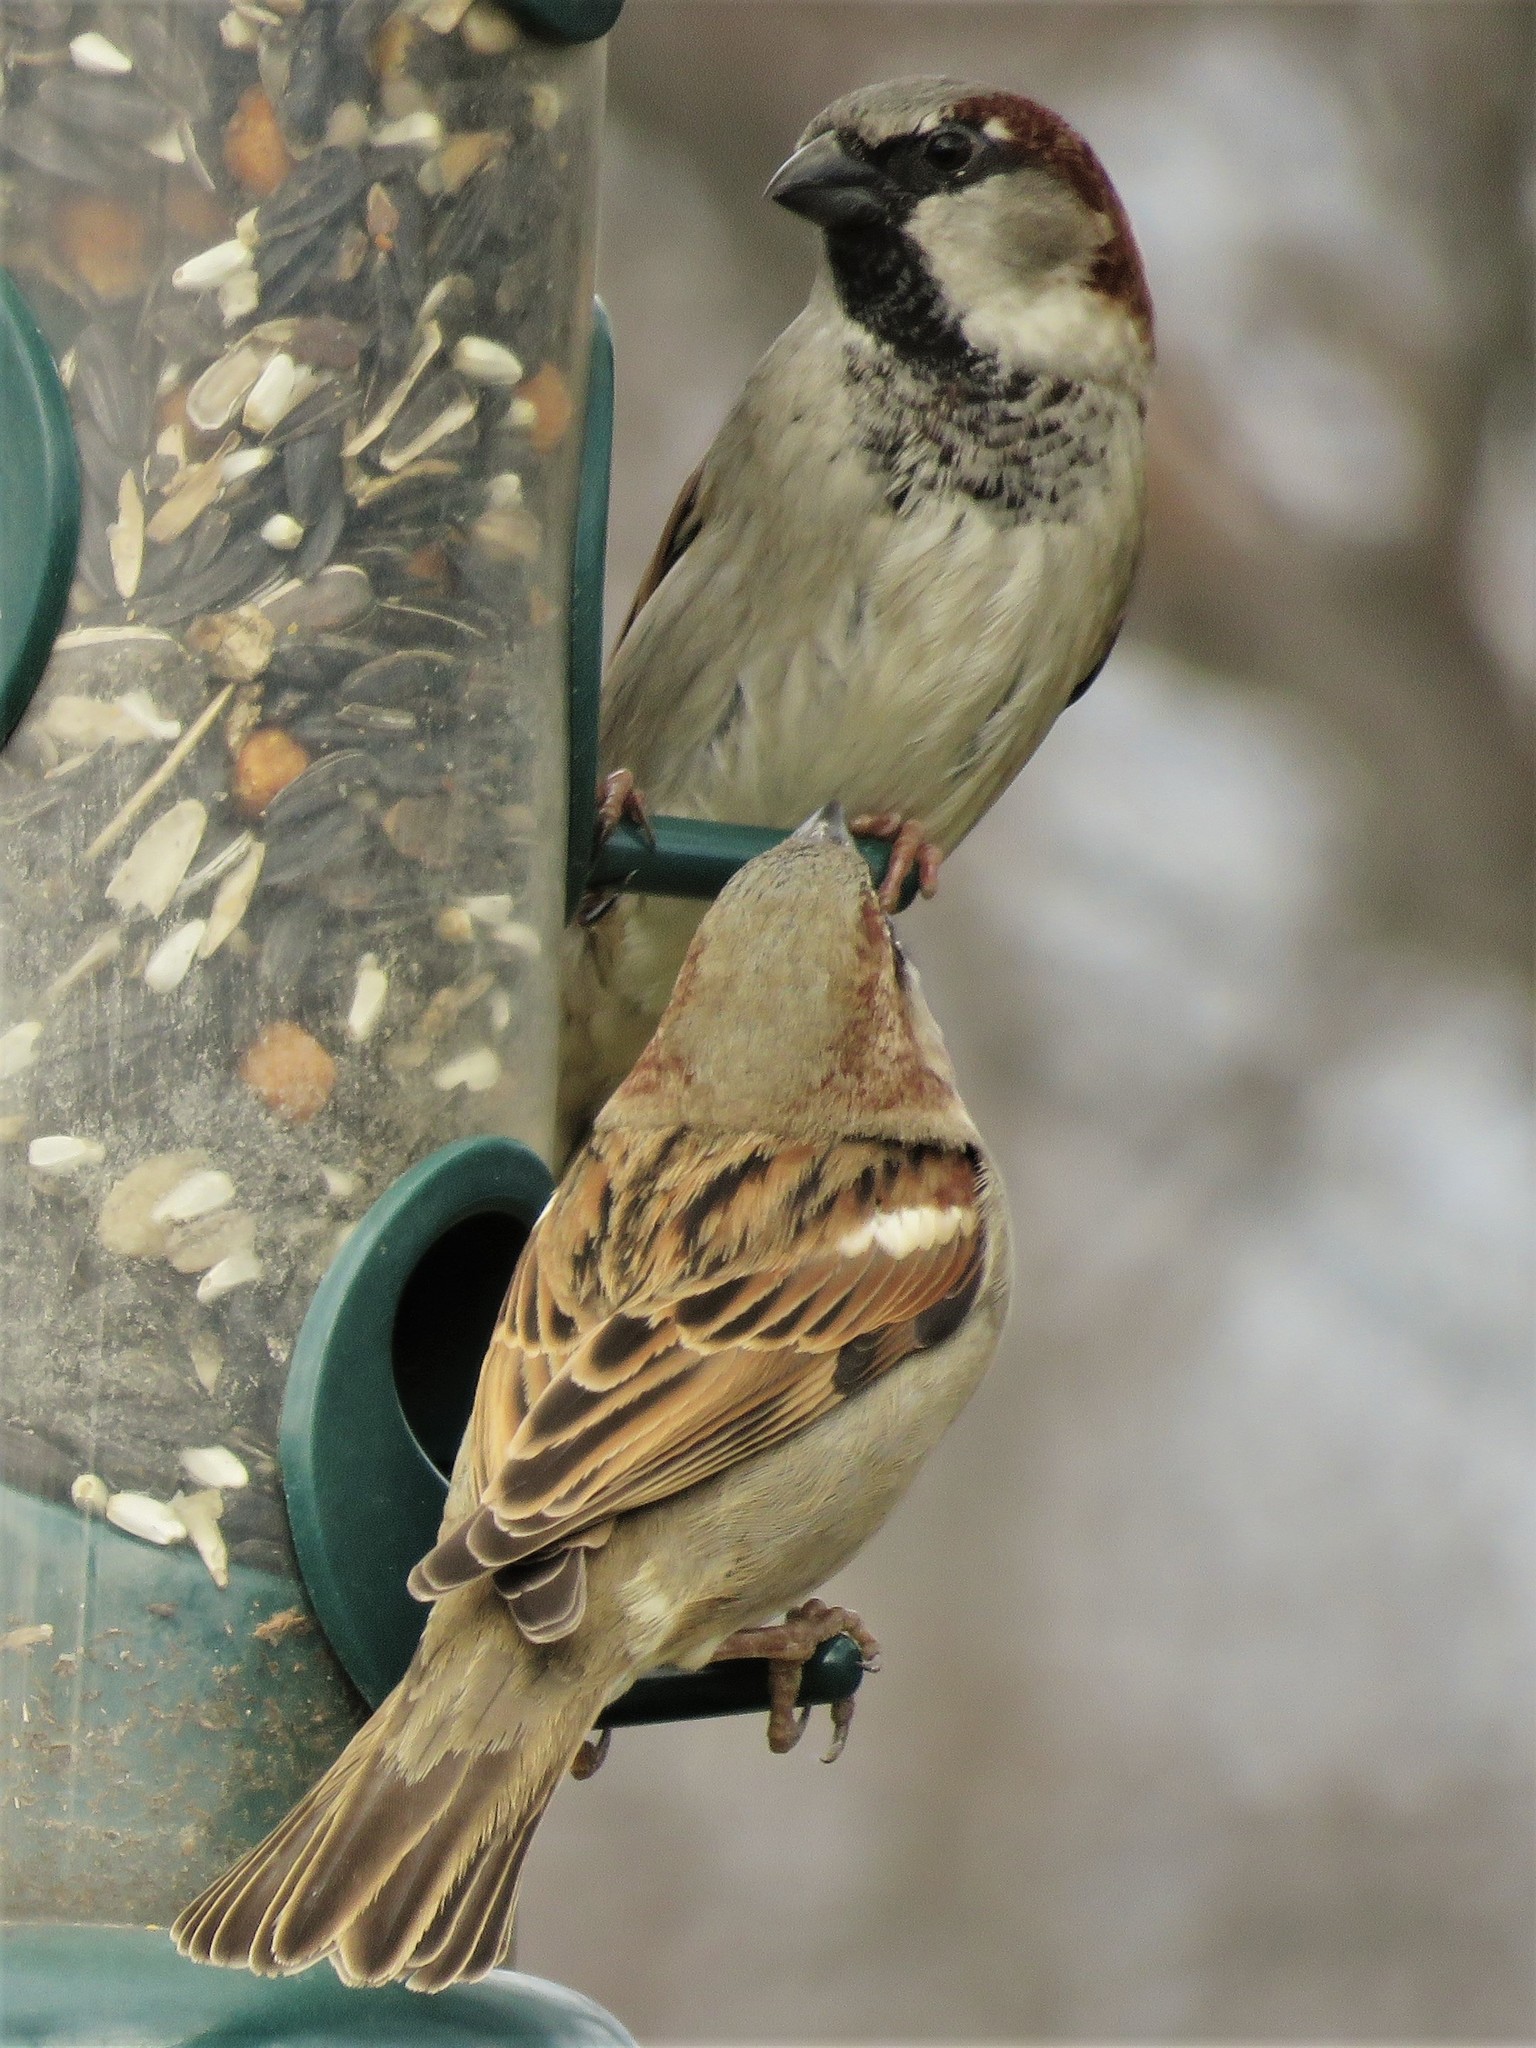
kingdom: Animalia
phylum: Chordata
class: Aves
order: Passeriformes
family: Passeridae
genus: Passer
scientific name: Passer domesticus
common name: House sparrow
